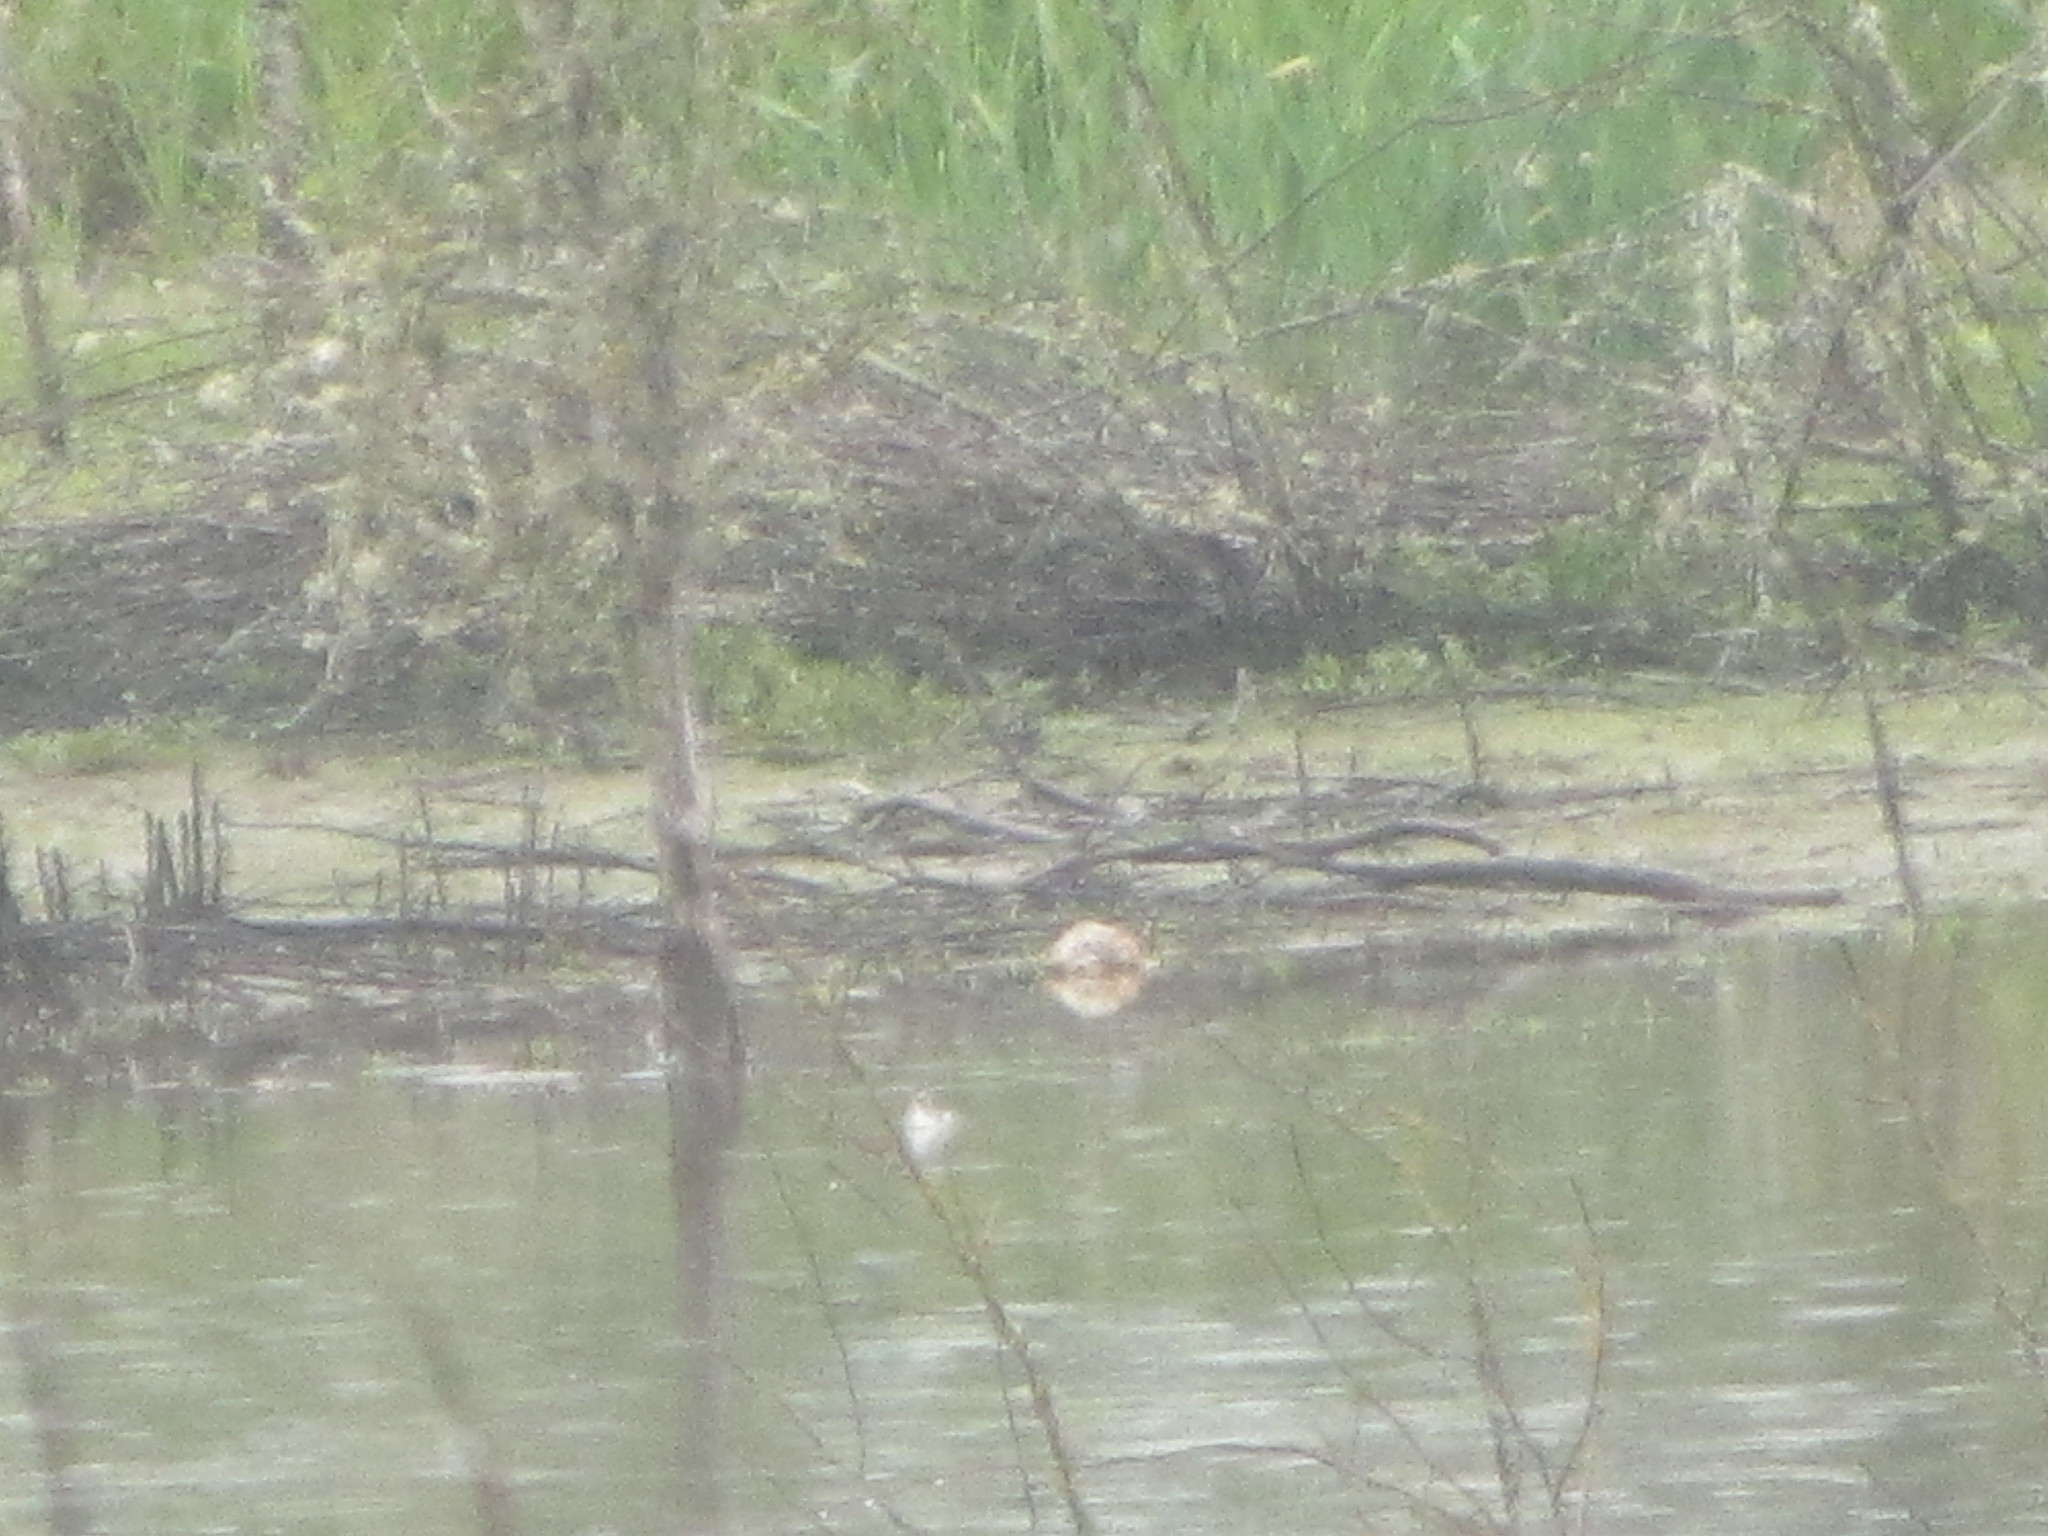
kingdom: Animalia
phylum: Chordata
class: Aves
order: Charadriiformes
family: Scolopacidae
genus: Phalaropus
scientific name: Phalaropus lobatus
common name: Red-necked phalarope
